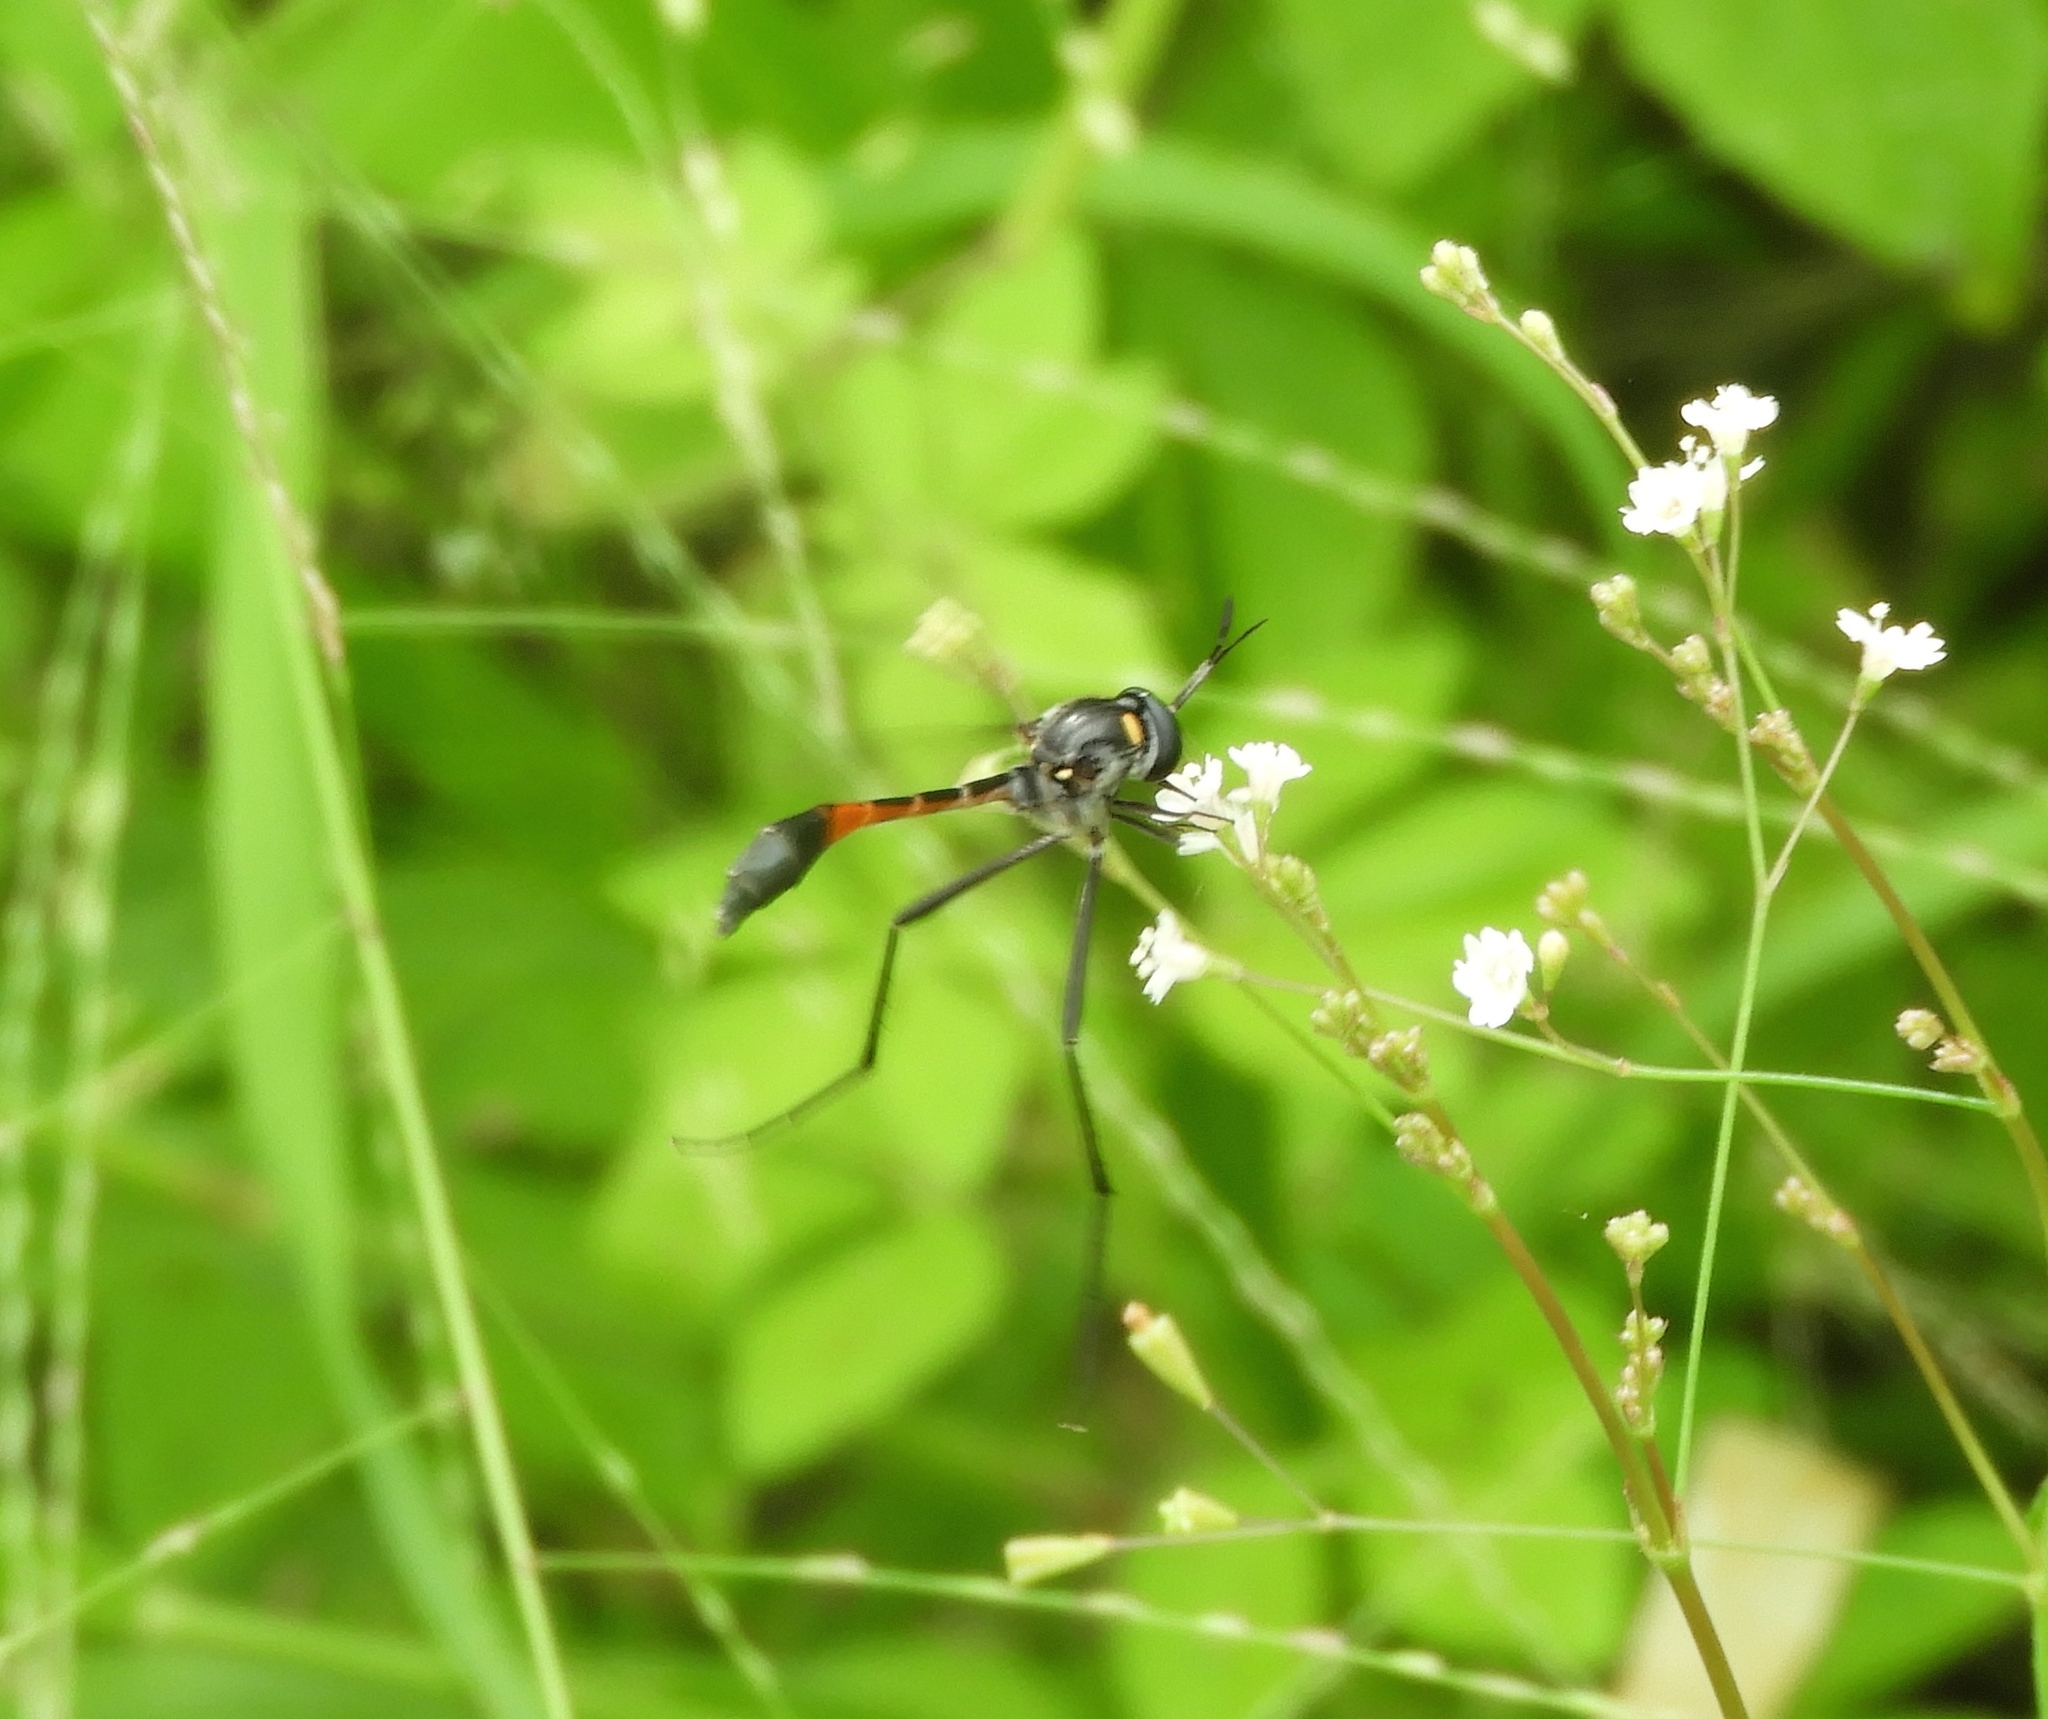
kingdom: Animalia
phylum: Arthropoda
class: Insecta
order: Diptera
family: Bombyliidae
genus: Systropus
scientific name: Systropus
